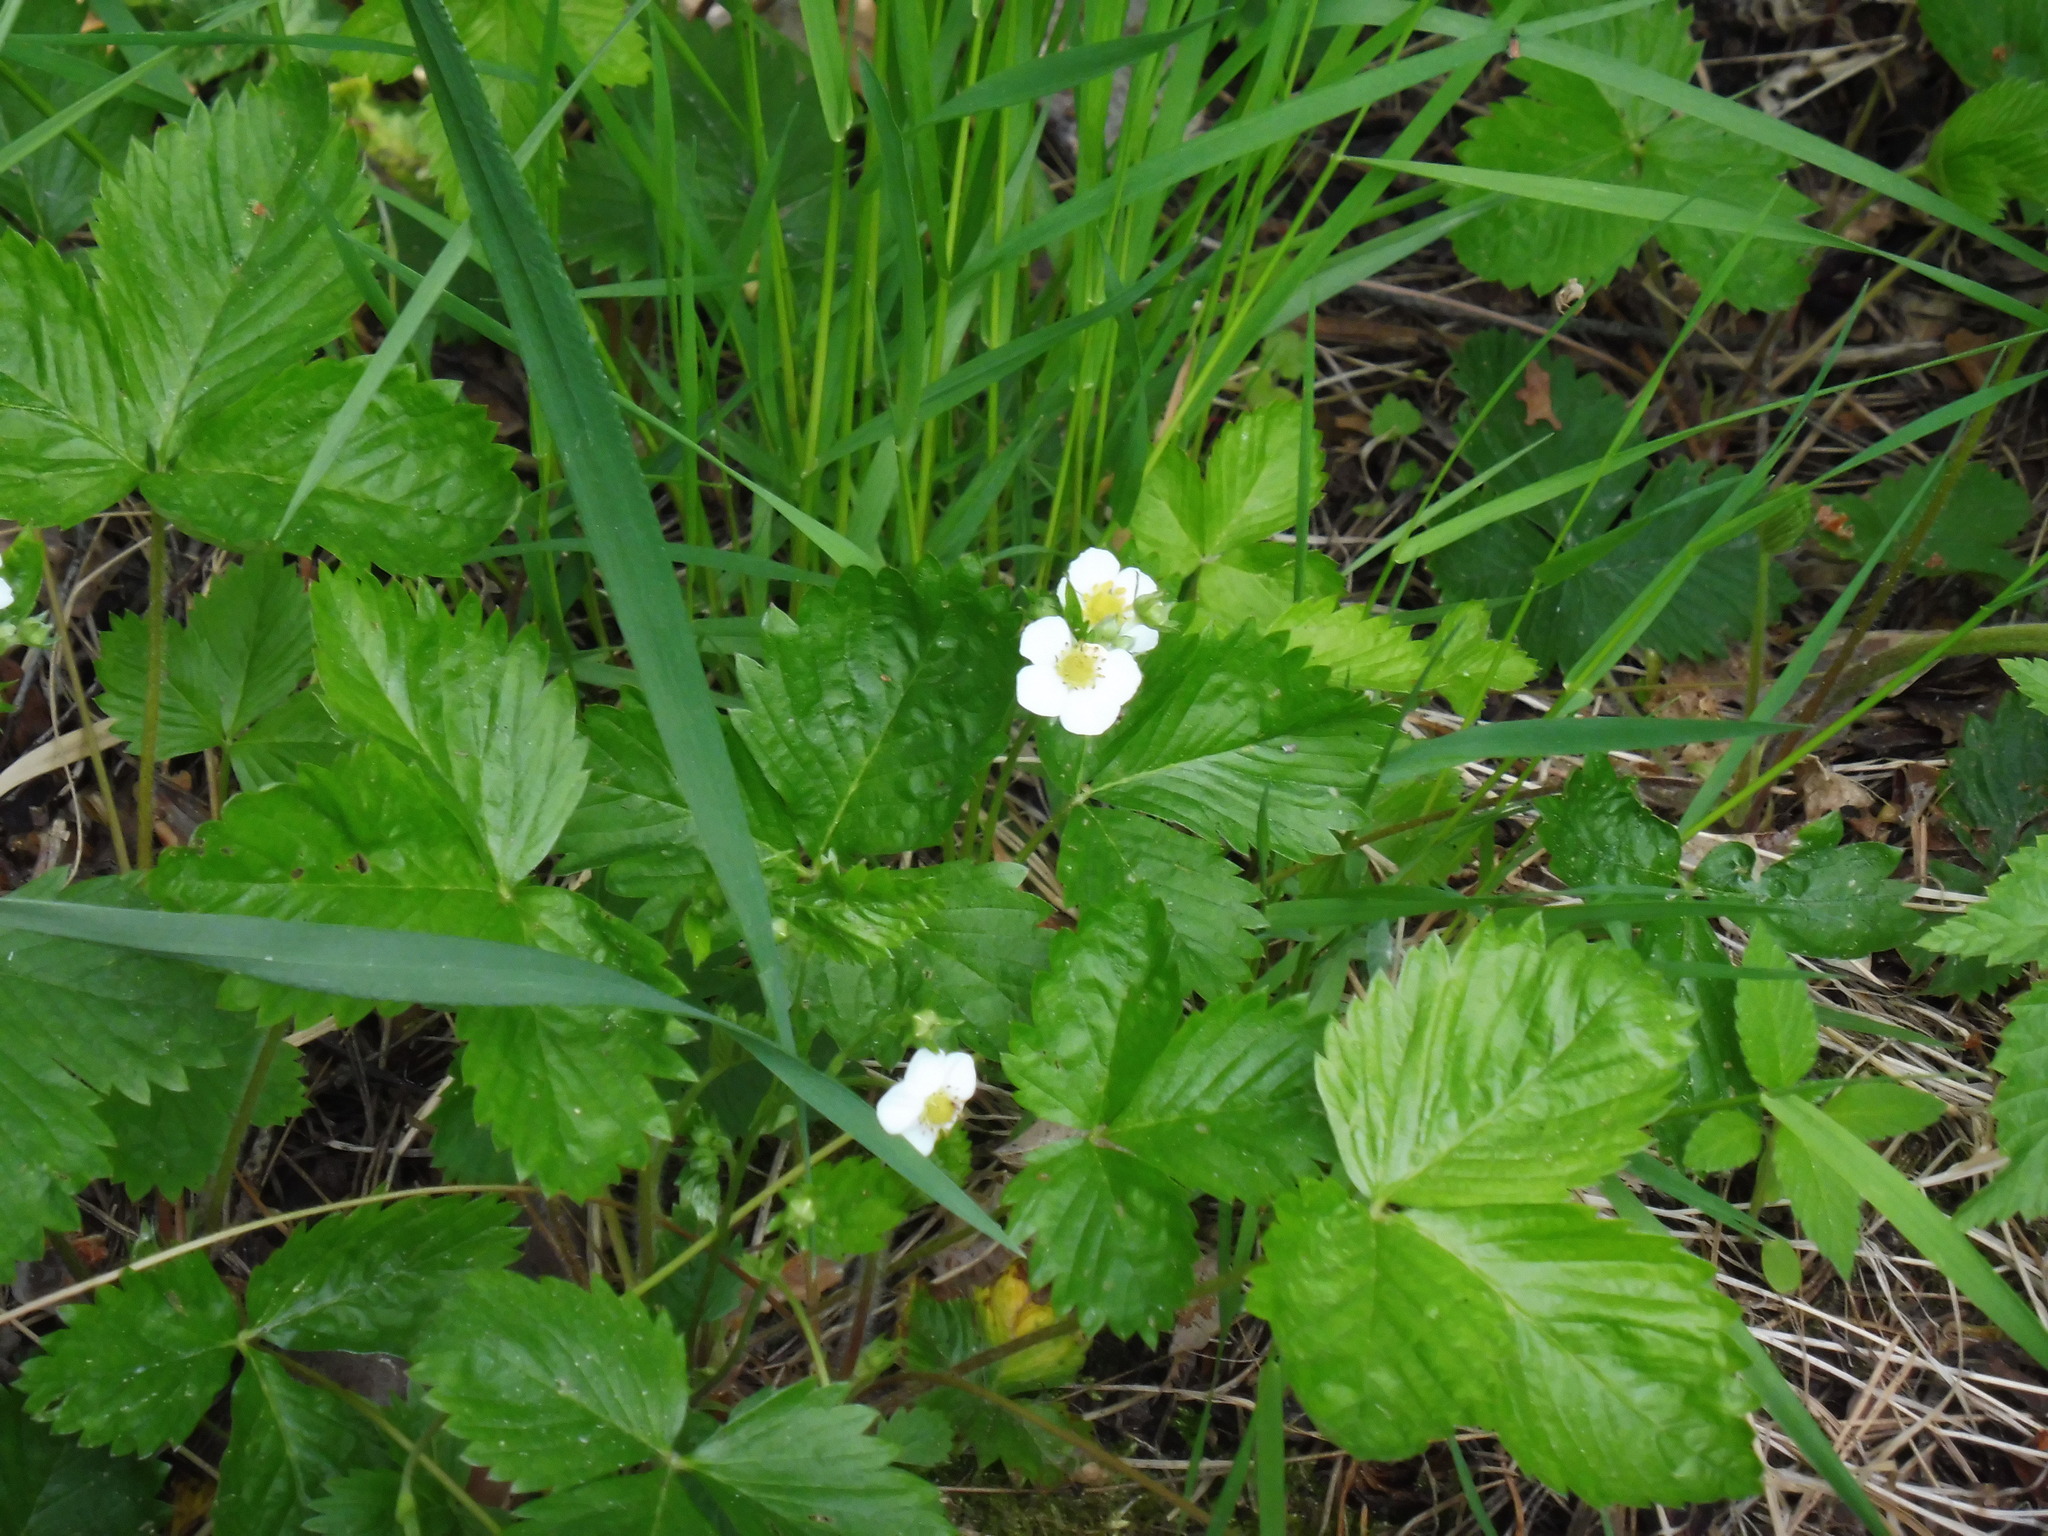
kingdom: Plantae
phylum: Tracheophyta
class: Magnoliopsida
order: Rosales
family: Rosaceae
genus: Fragaria
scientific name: Fragaria vesca
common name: Wild strawberry
